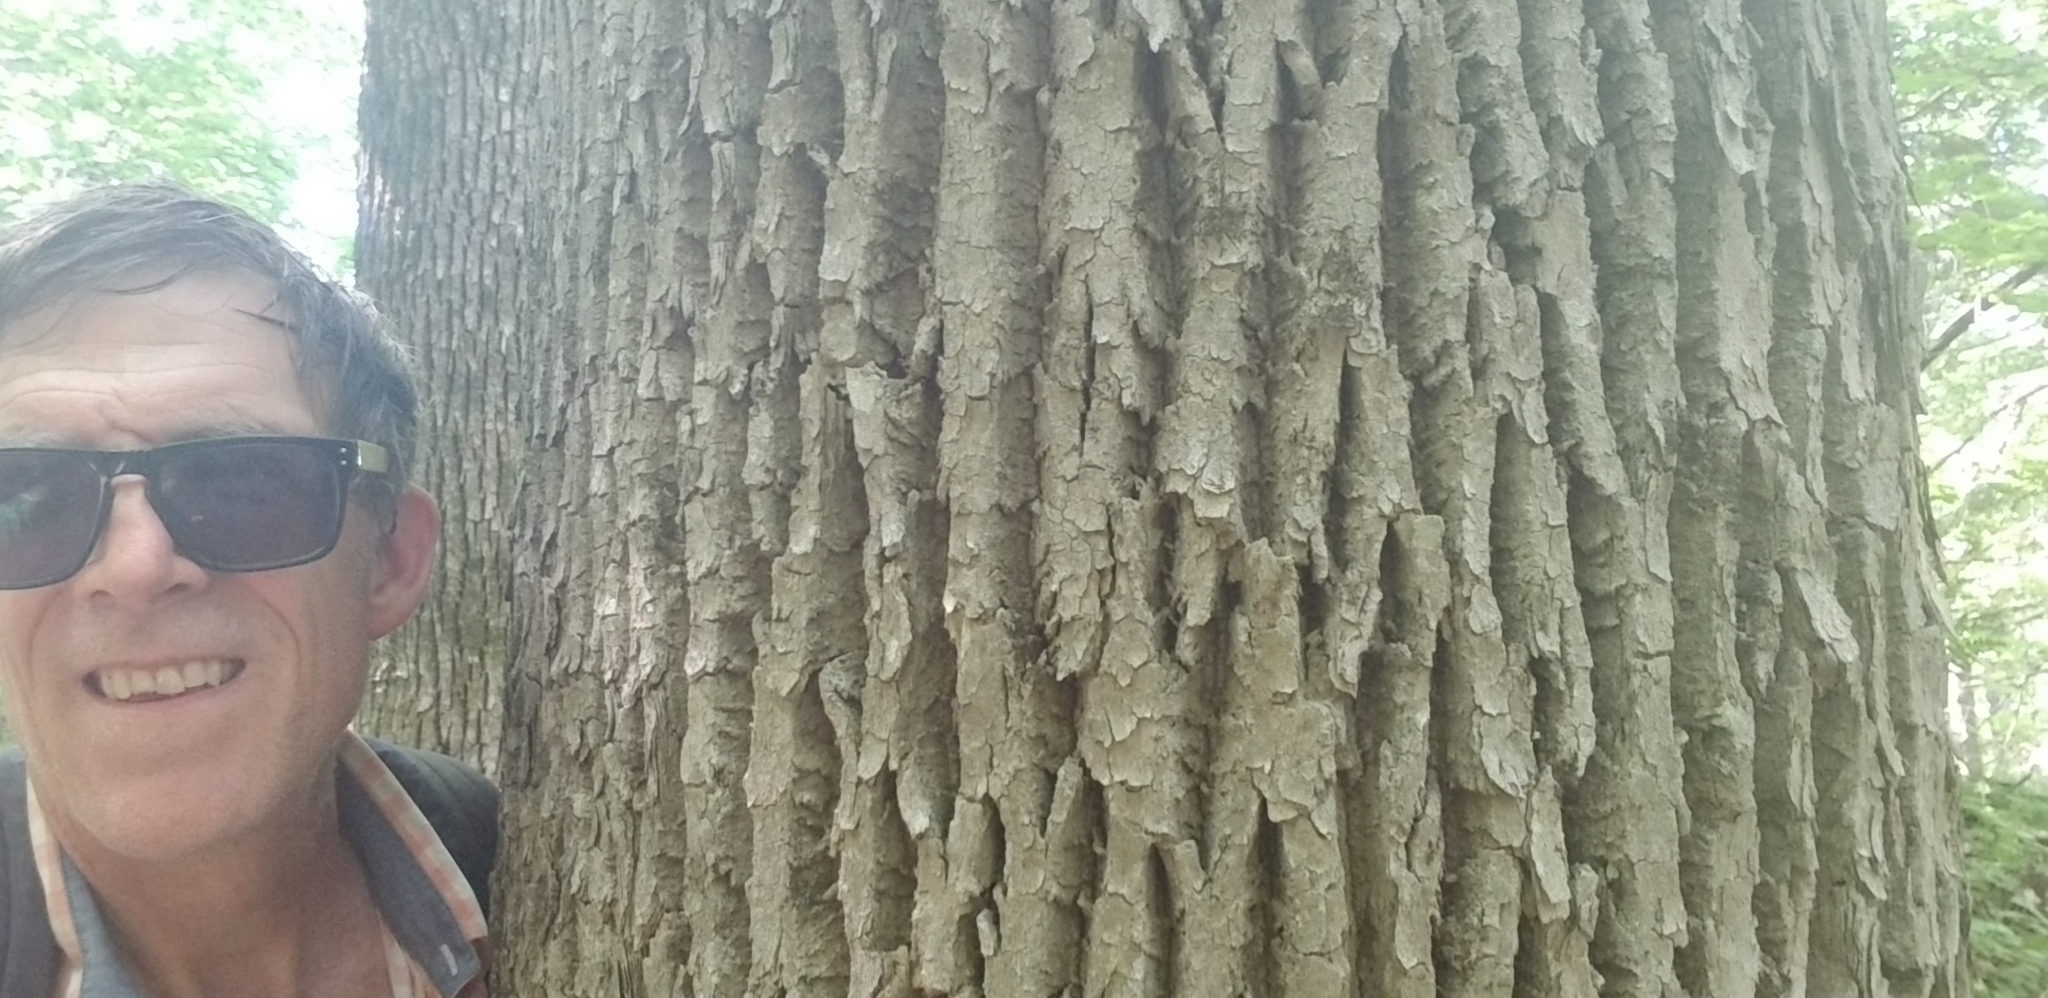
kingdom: Plantae
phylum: Tracheophyta
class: Magnoliopsida
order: Lamiales
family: Oleaceae
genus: Fraxinus
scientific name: Fraxinus americana
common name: White ash
